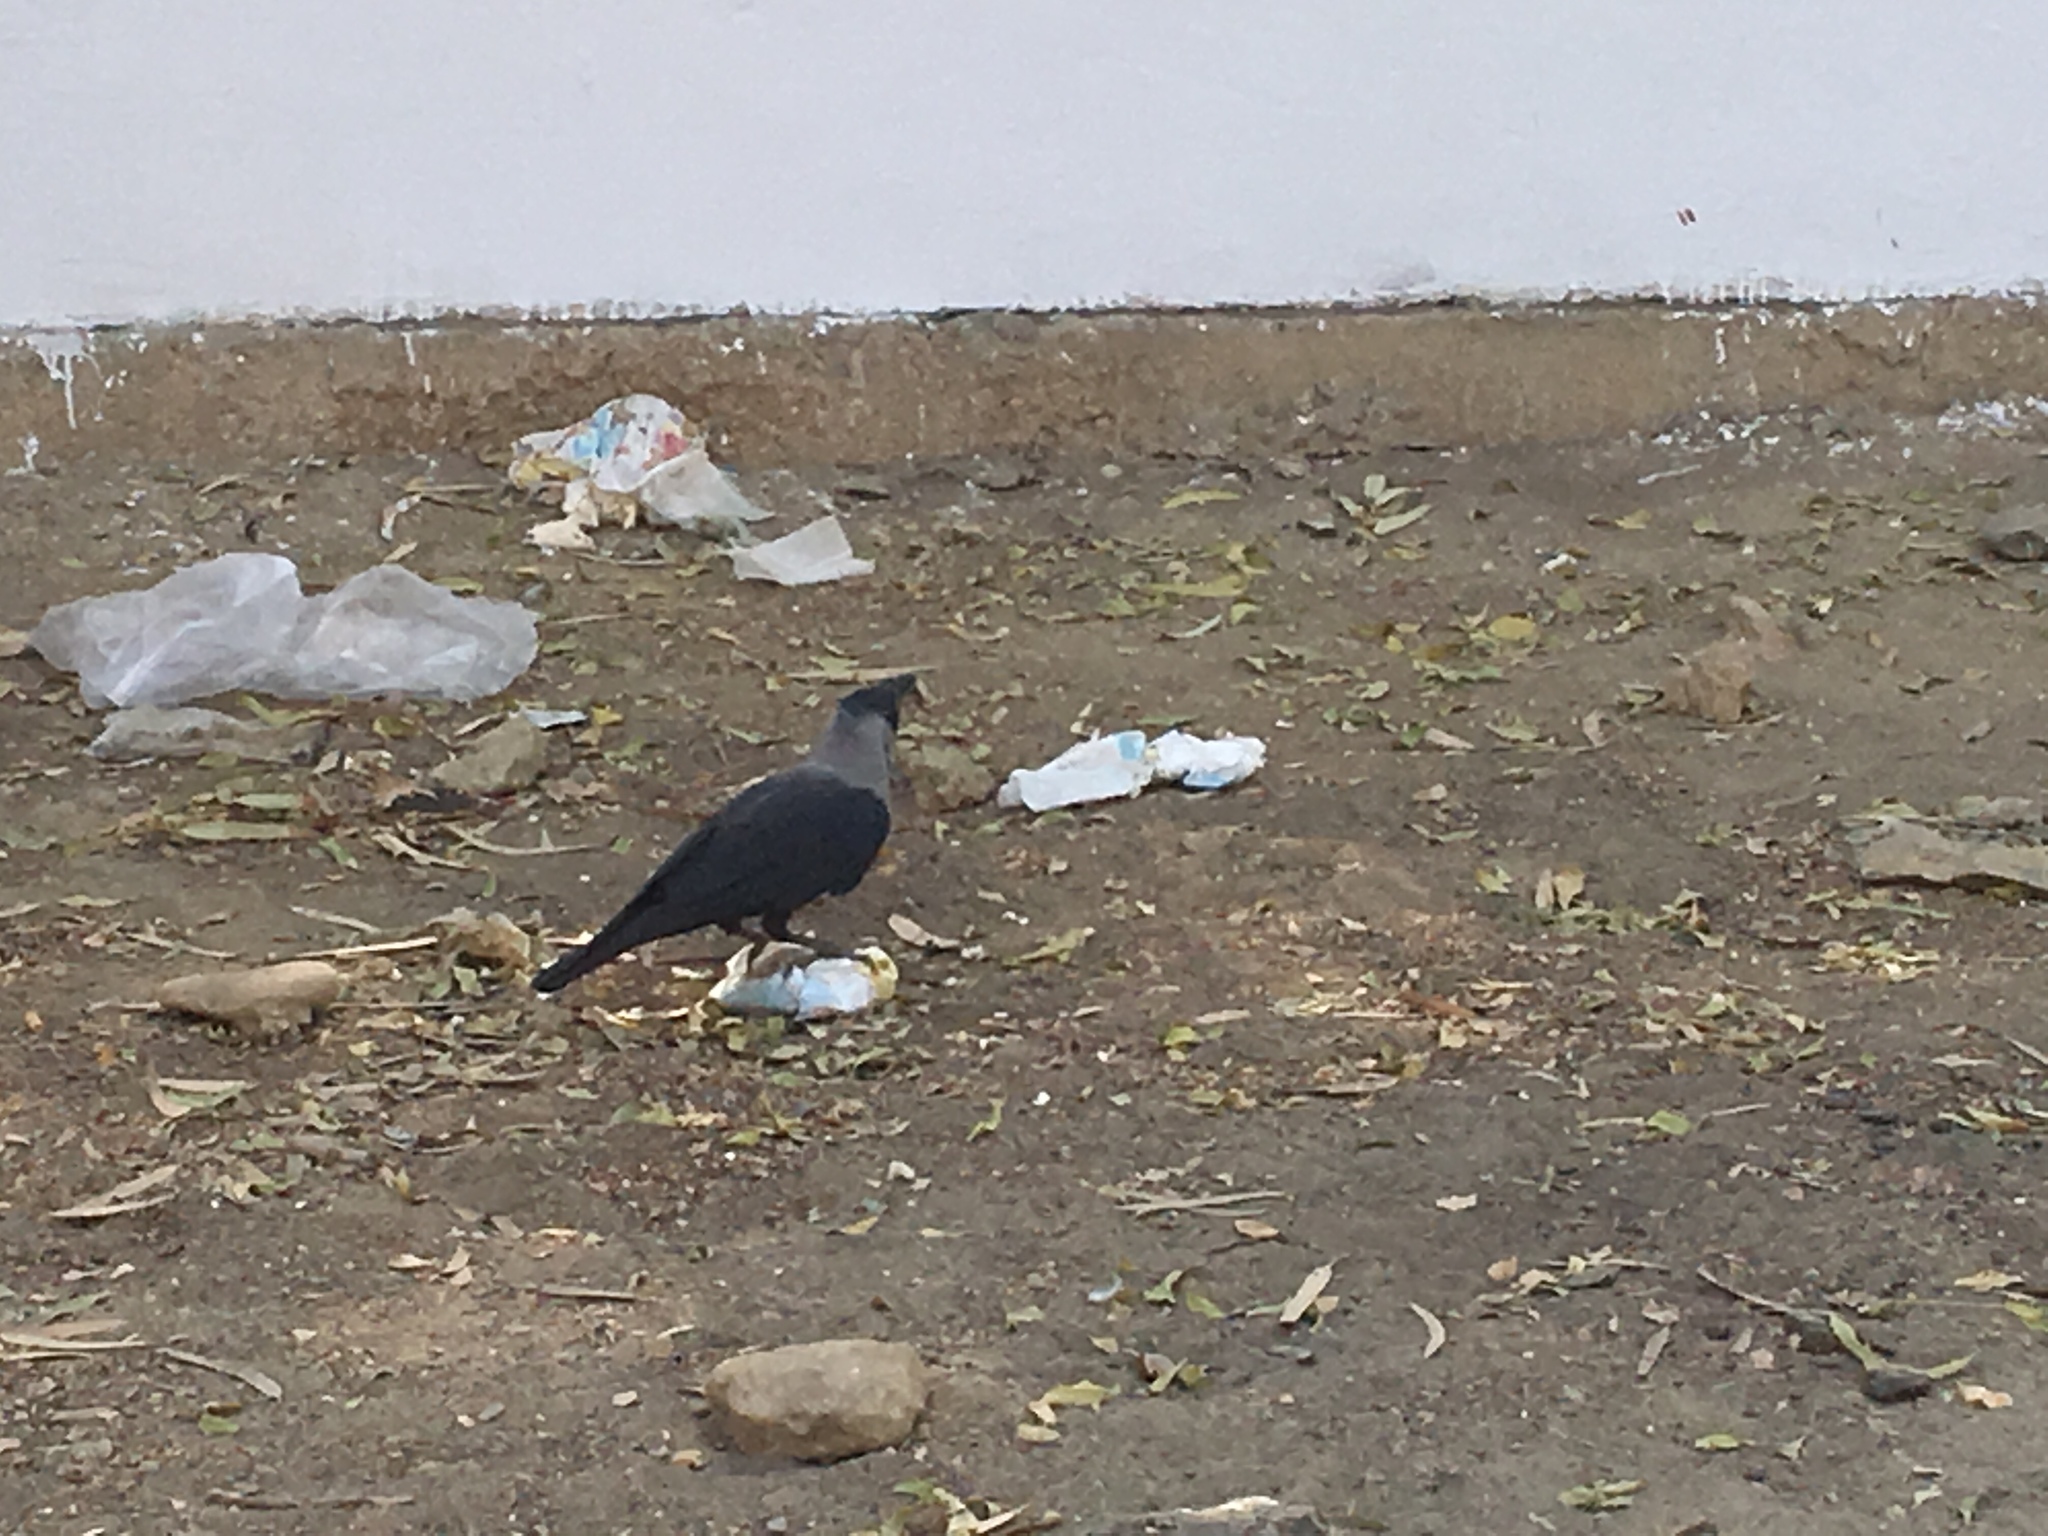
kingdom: Animalia
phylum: Chordata
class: Aves
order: Passeriformes
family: Corvidae
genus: Corvus
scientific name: Corvus splendens
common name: House crow
